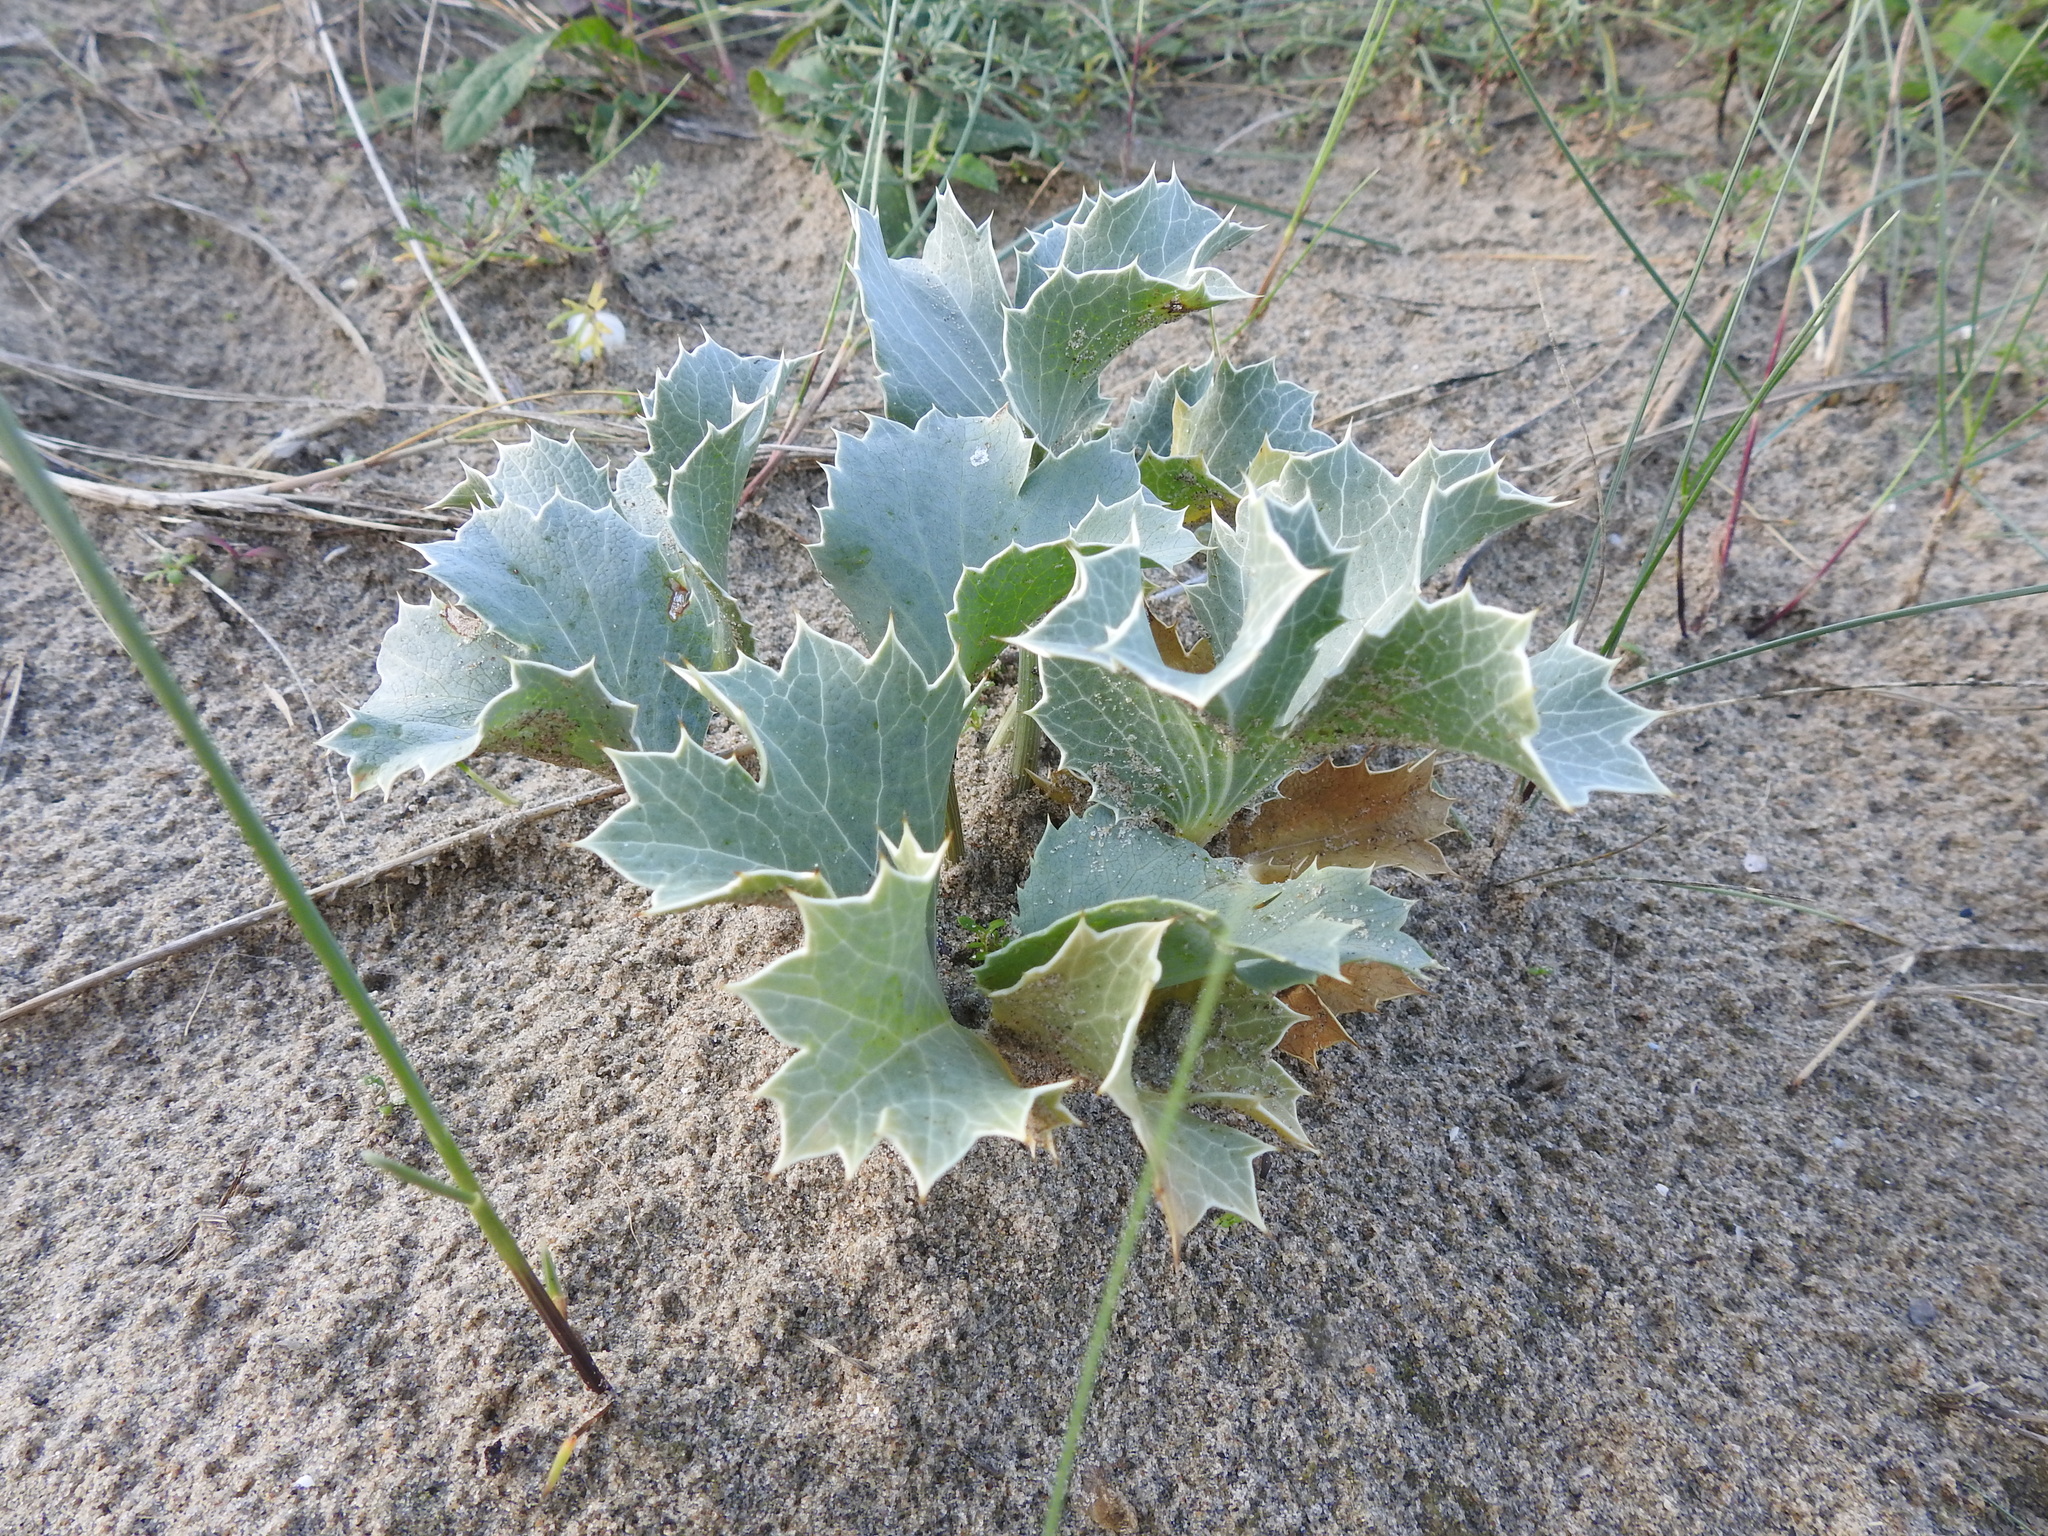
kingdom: Plantae
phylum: Tracheophyta
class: Magnoliopsida
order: Apiales
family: Apiaceae
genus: Eryngium
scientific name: Eryngium maritimum
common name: Sea-holly
